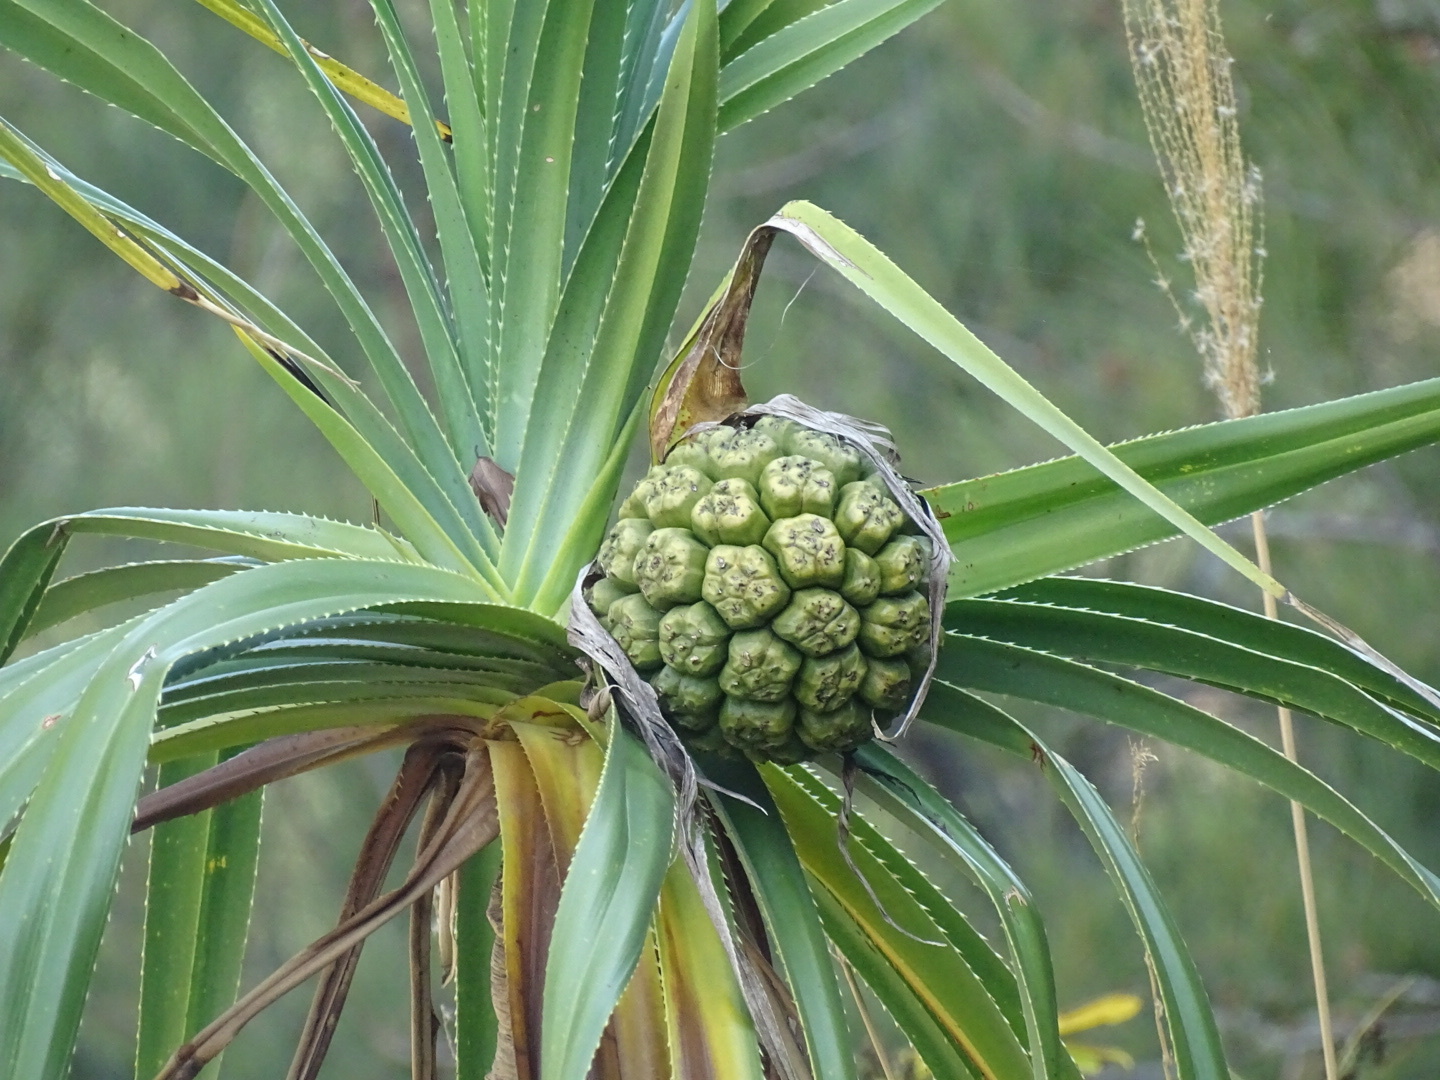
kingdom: Plantae
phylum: Tracheophyta
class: Liliopsida
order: Pandanales
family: Pandanaceae
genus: Pandanus
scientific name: Pandanus tectorius
